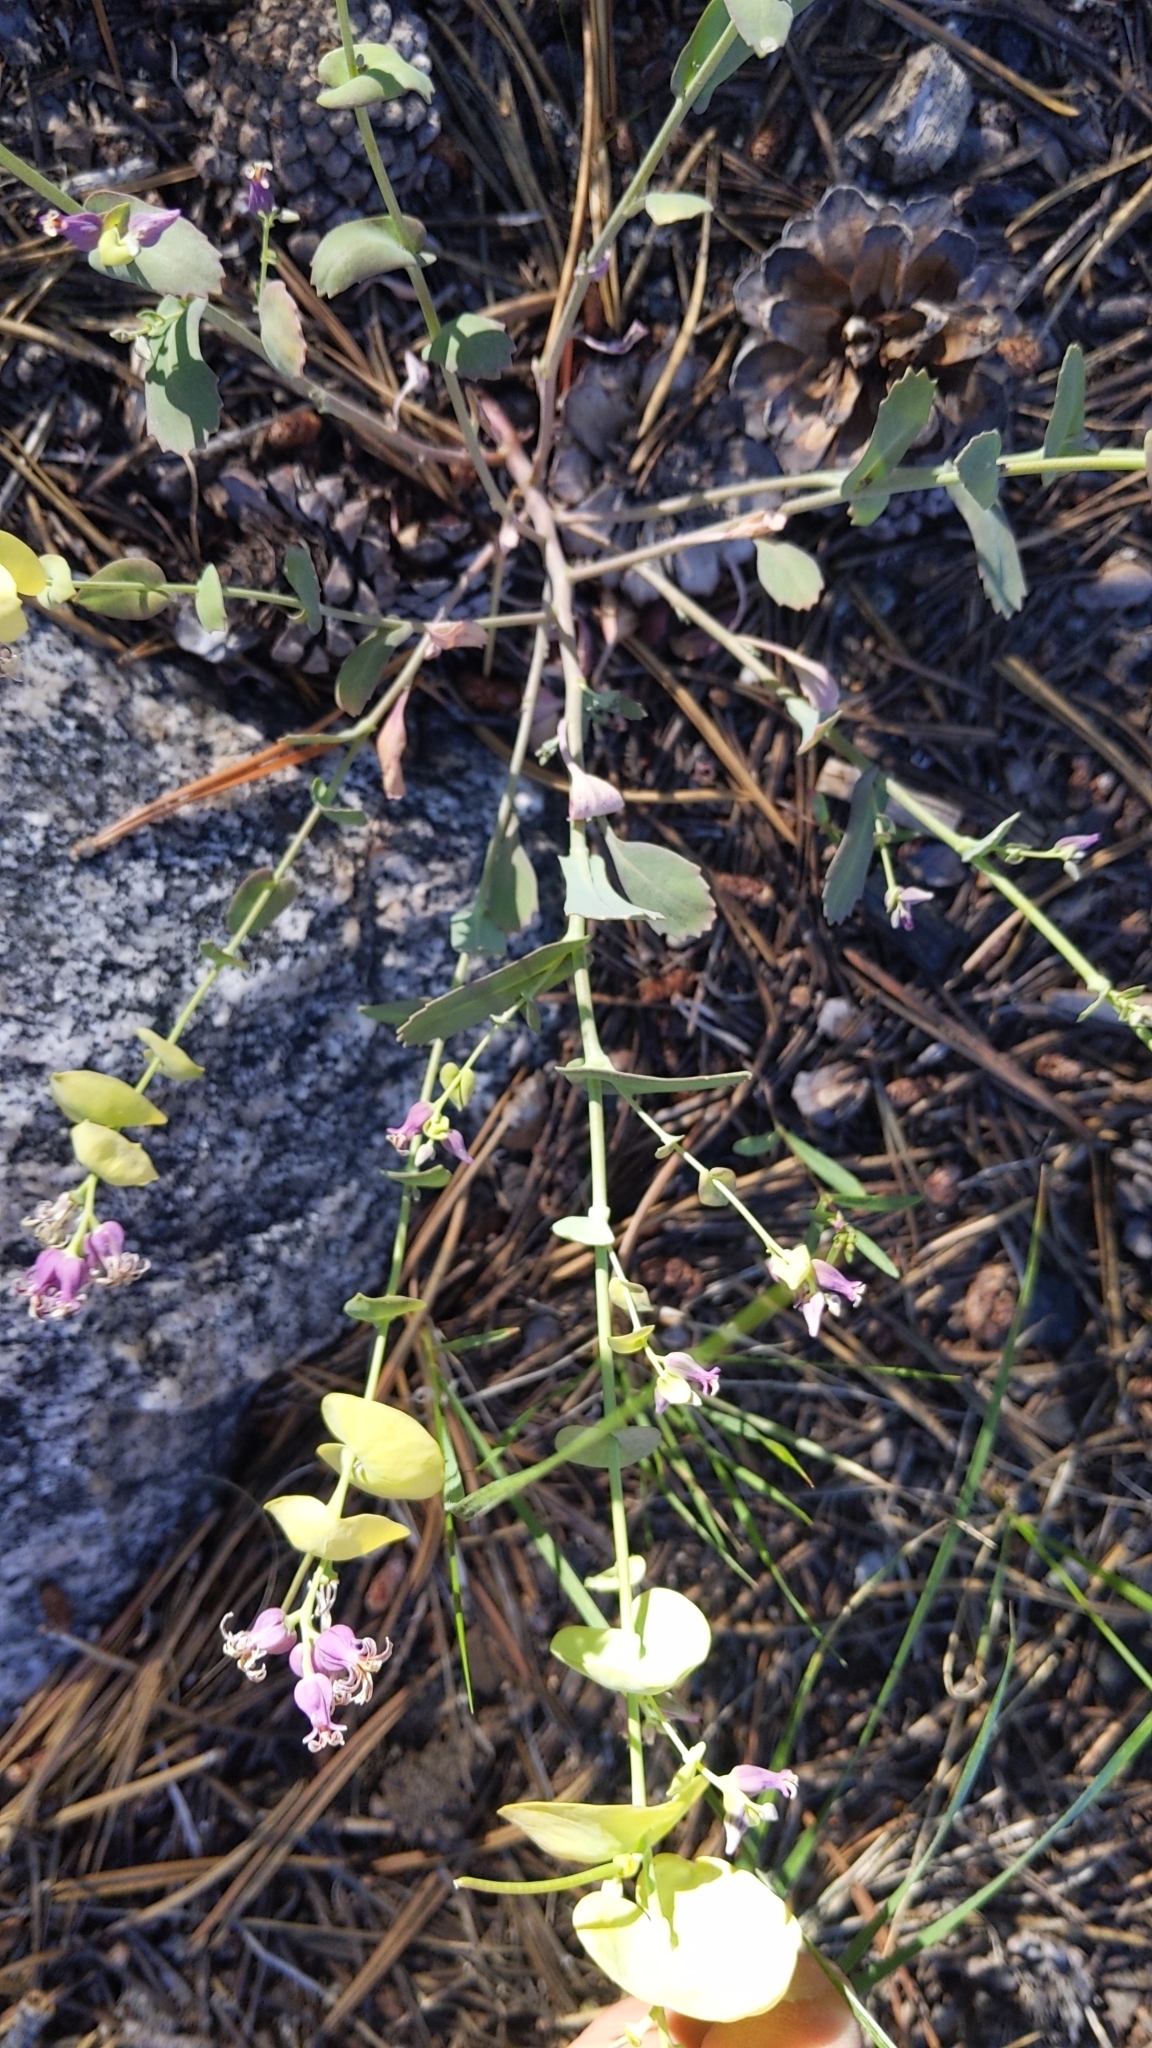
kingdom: Plantae
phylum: Tracheophyta
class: Magnoliopsida
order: Brassicales
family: Brassicaceae
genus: Streptanthus
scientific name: Streptanthus tortuosus
